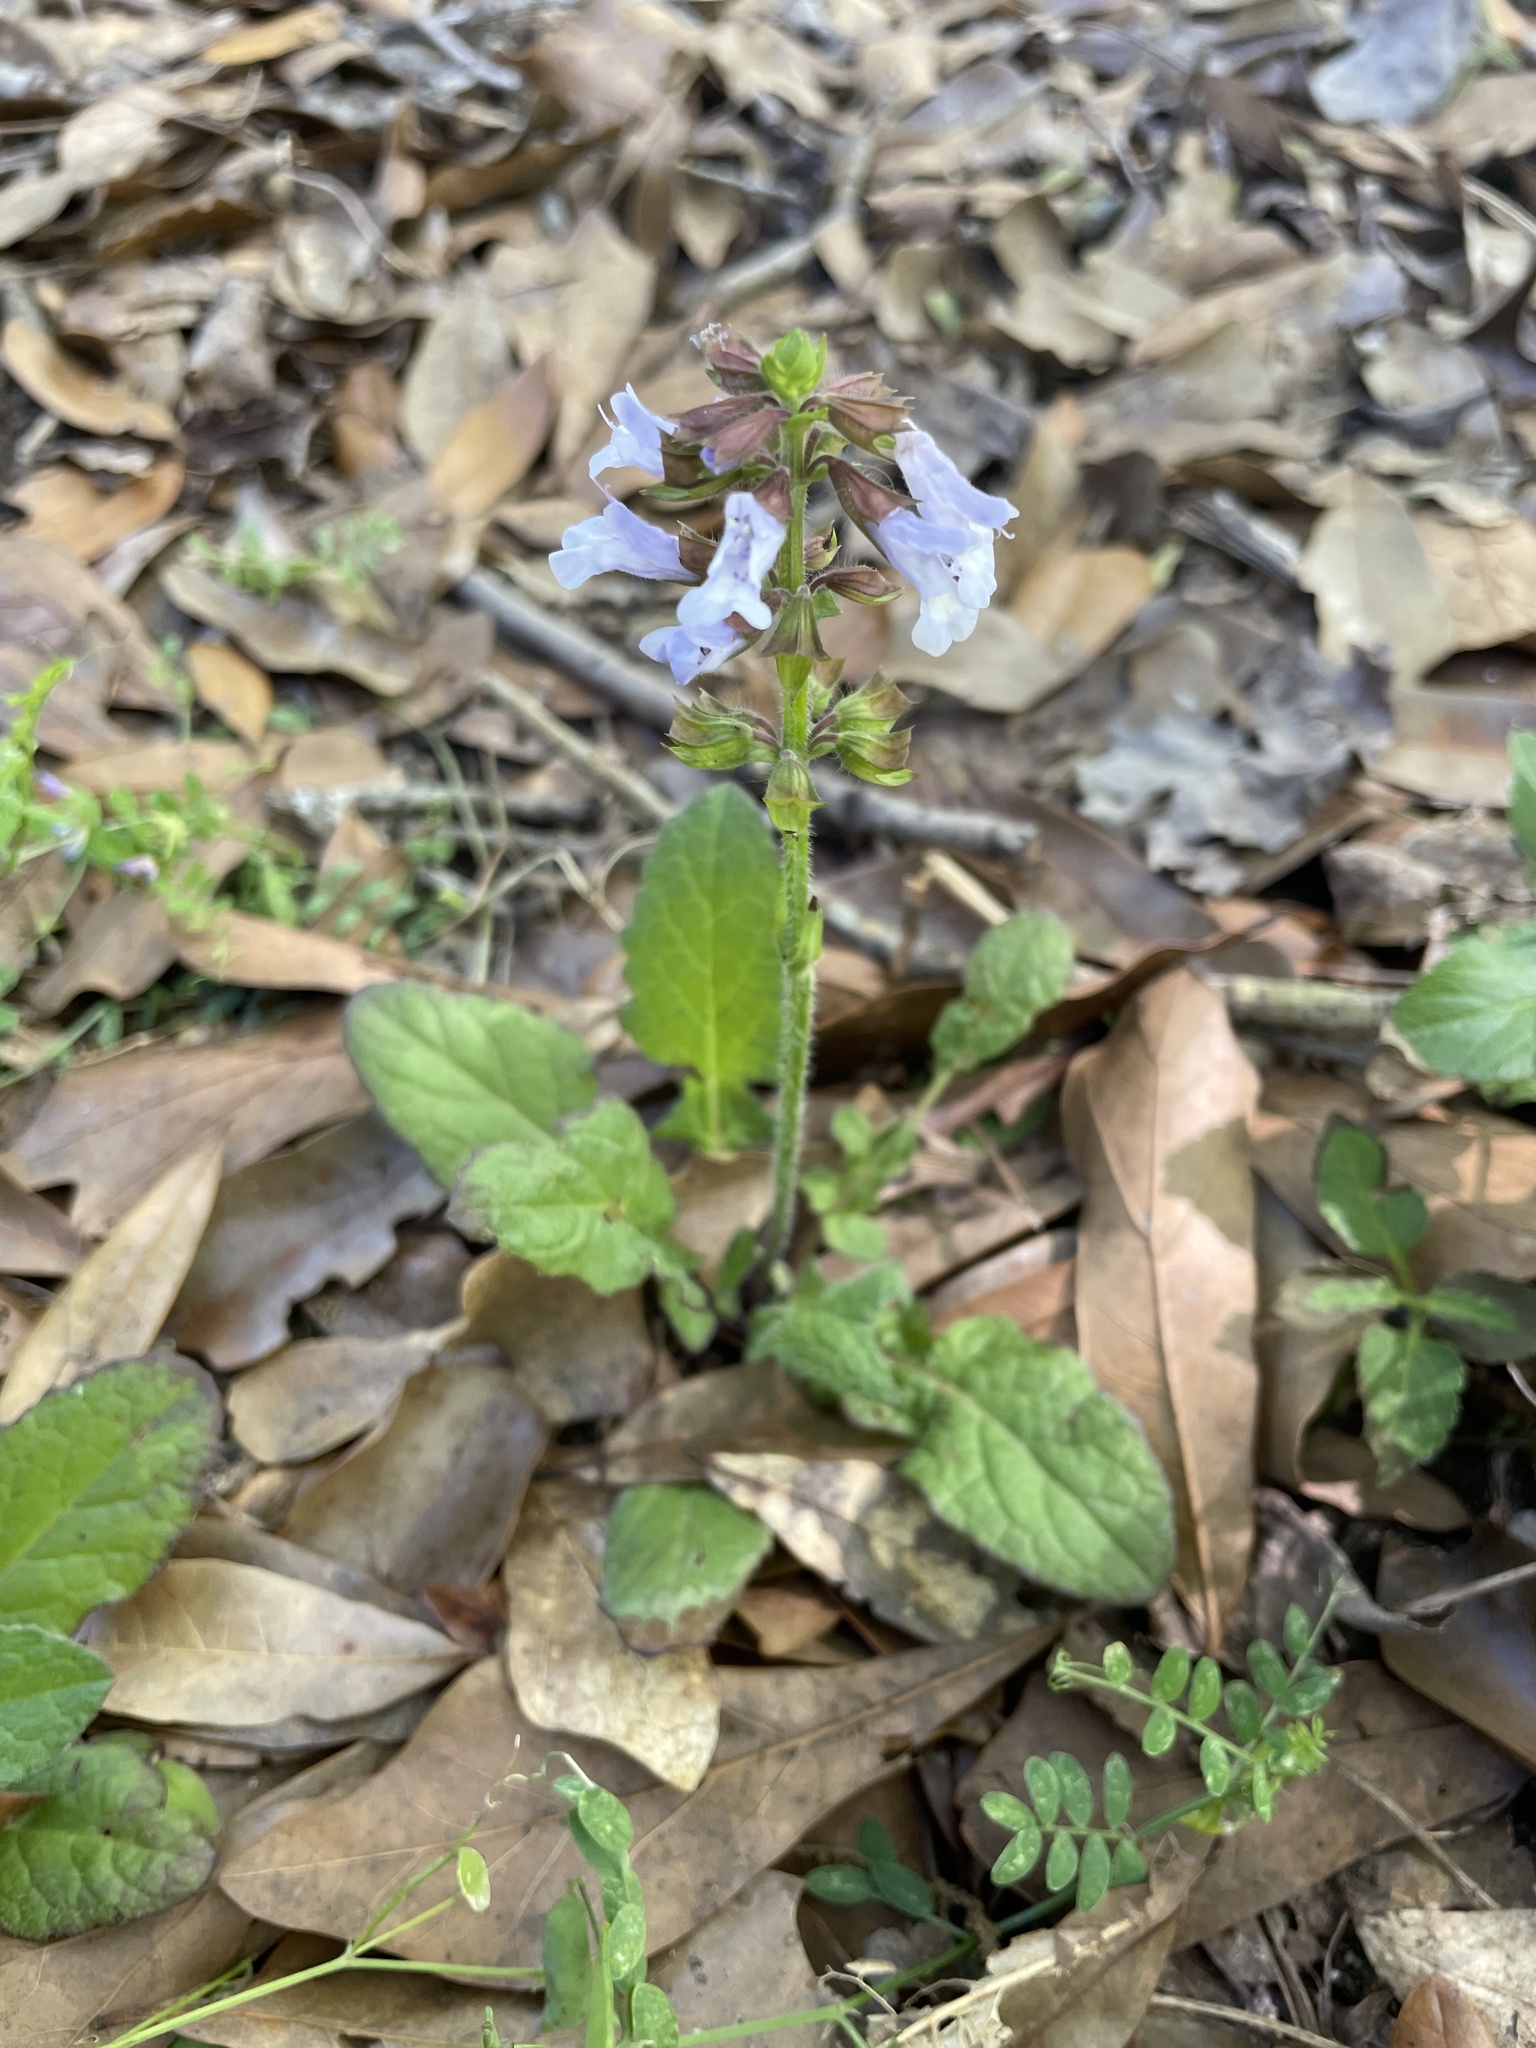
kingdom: Plantae
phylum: Tracheophyta
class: Magnoliopsida
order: Lamiales
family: Lamiaceae
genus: Salvia
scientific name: Salvia lyrata
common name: Cancerweed
